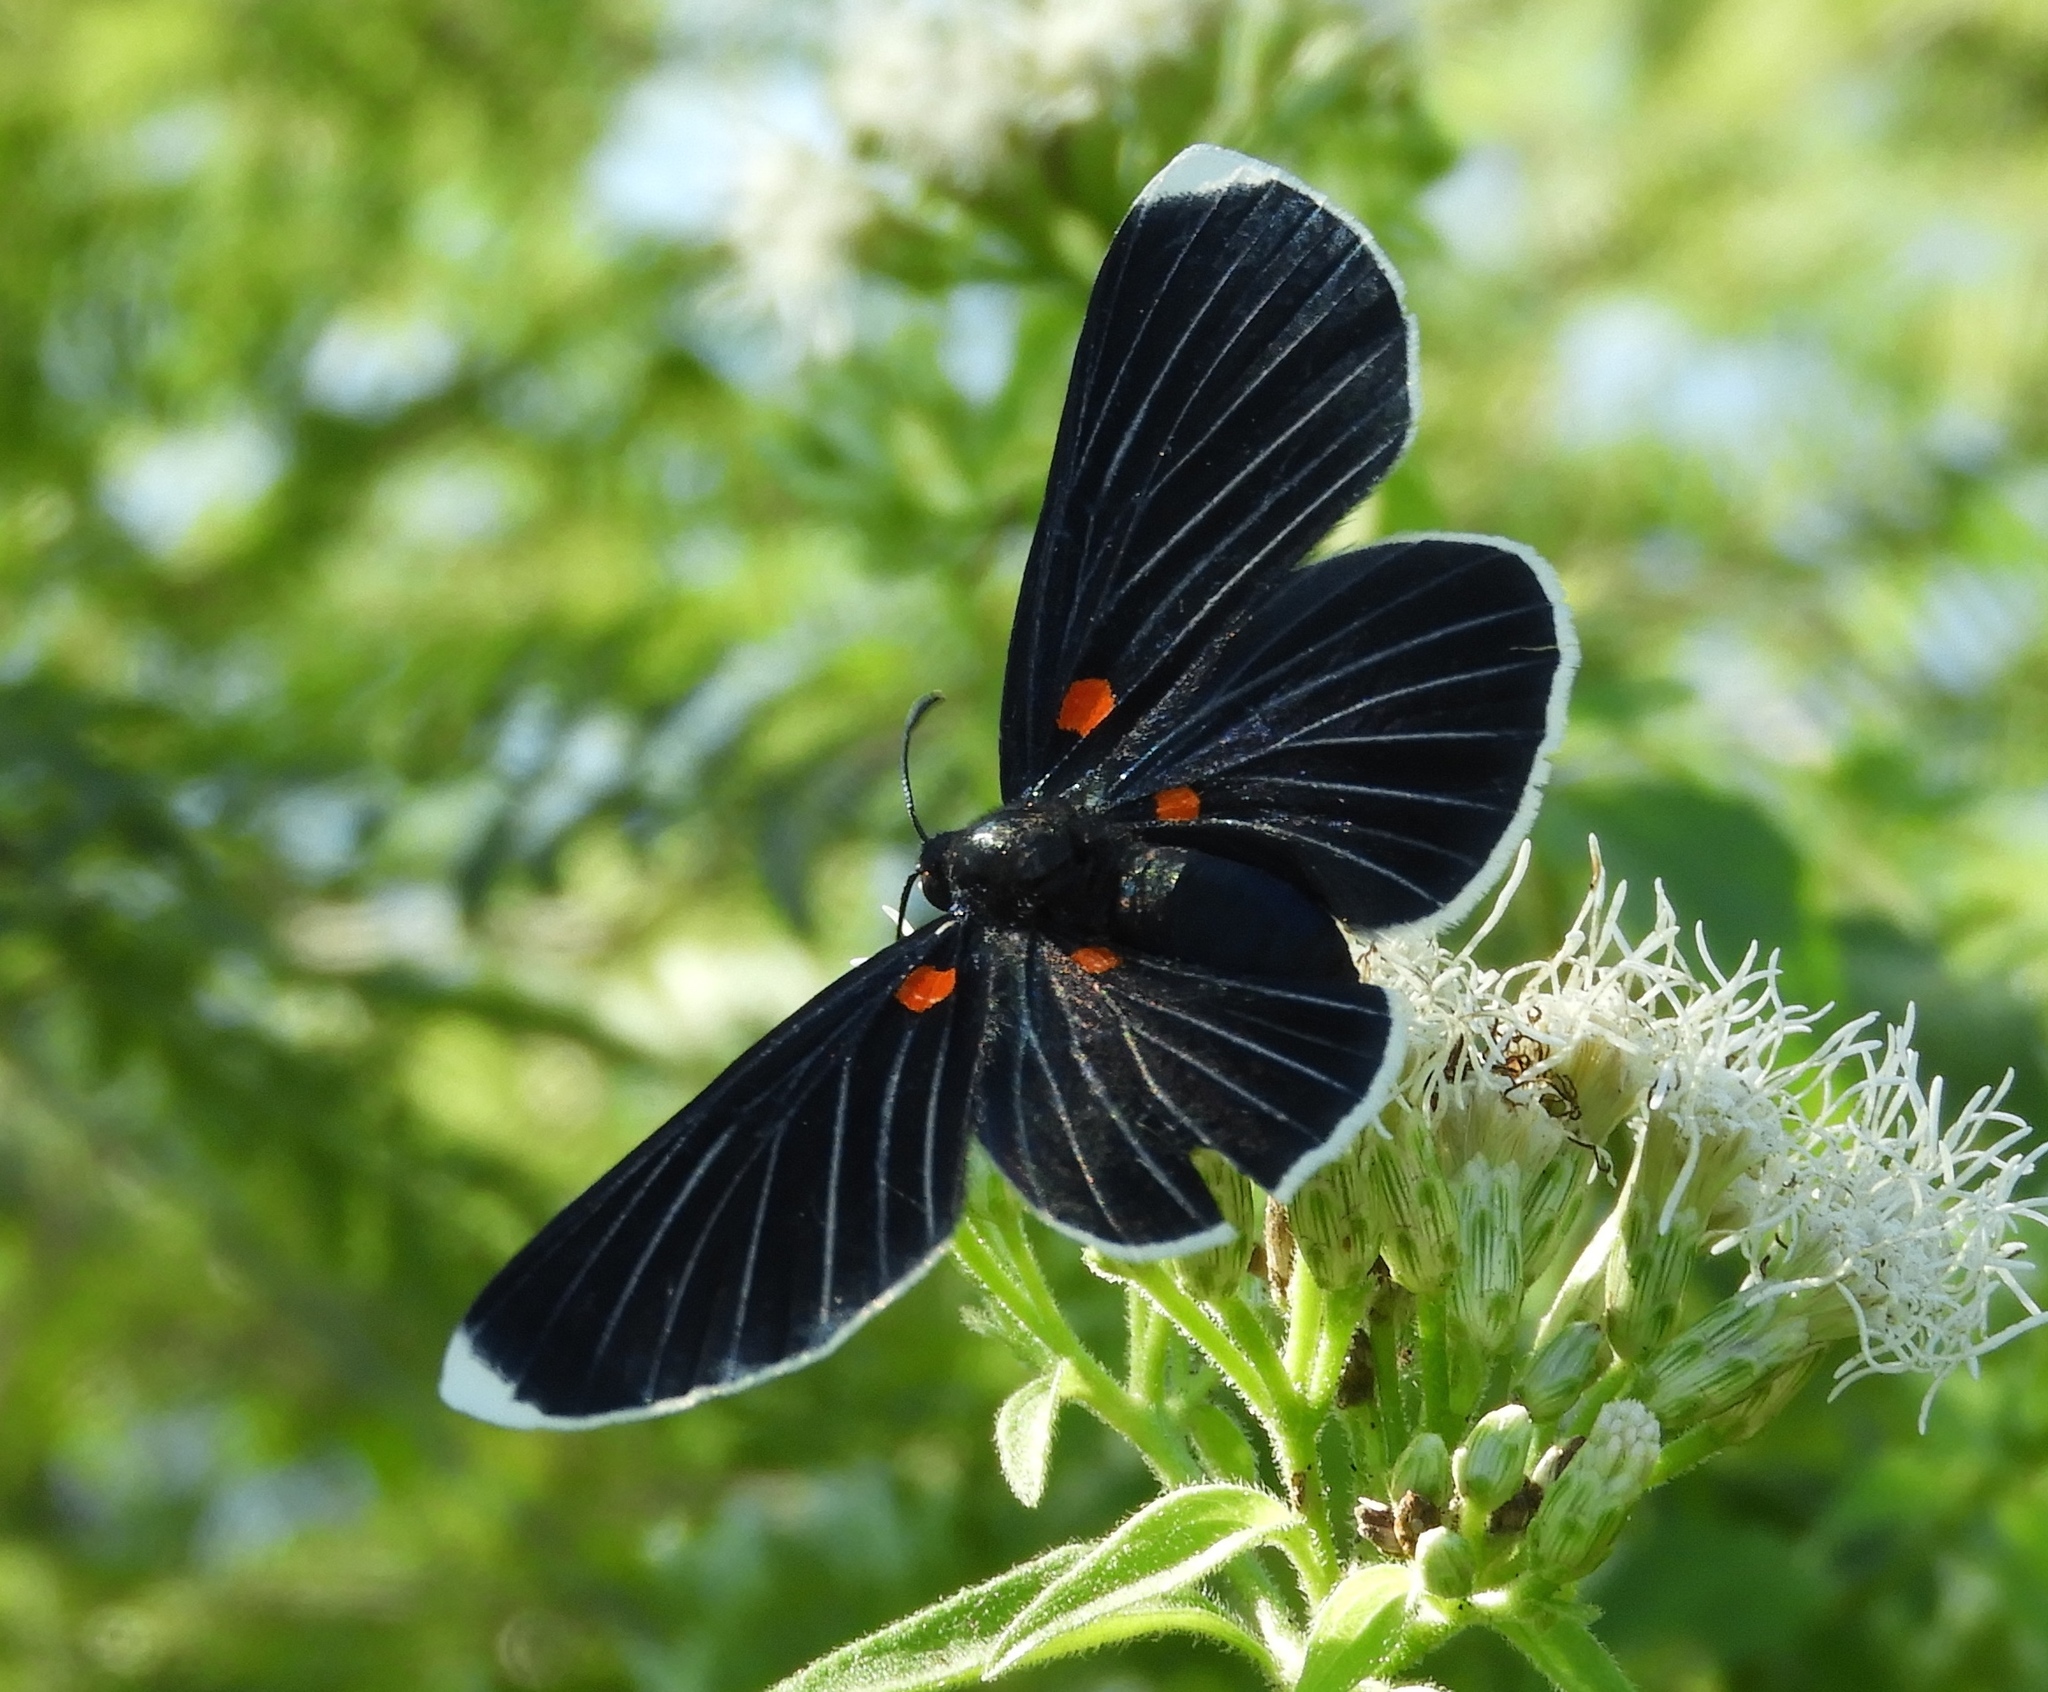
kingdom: Animalia
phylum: Arthropoda
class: Insecta
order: Lepidoptera
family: Lycaenidae
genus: Melanis
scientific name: Melanis
